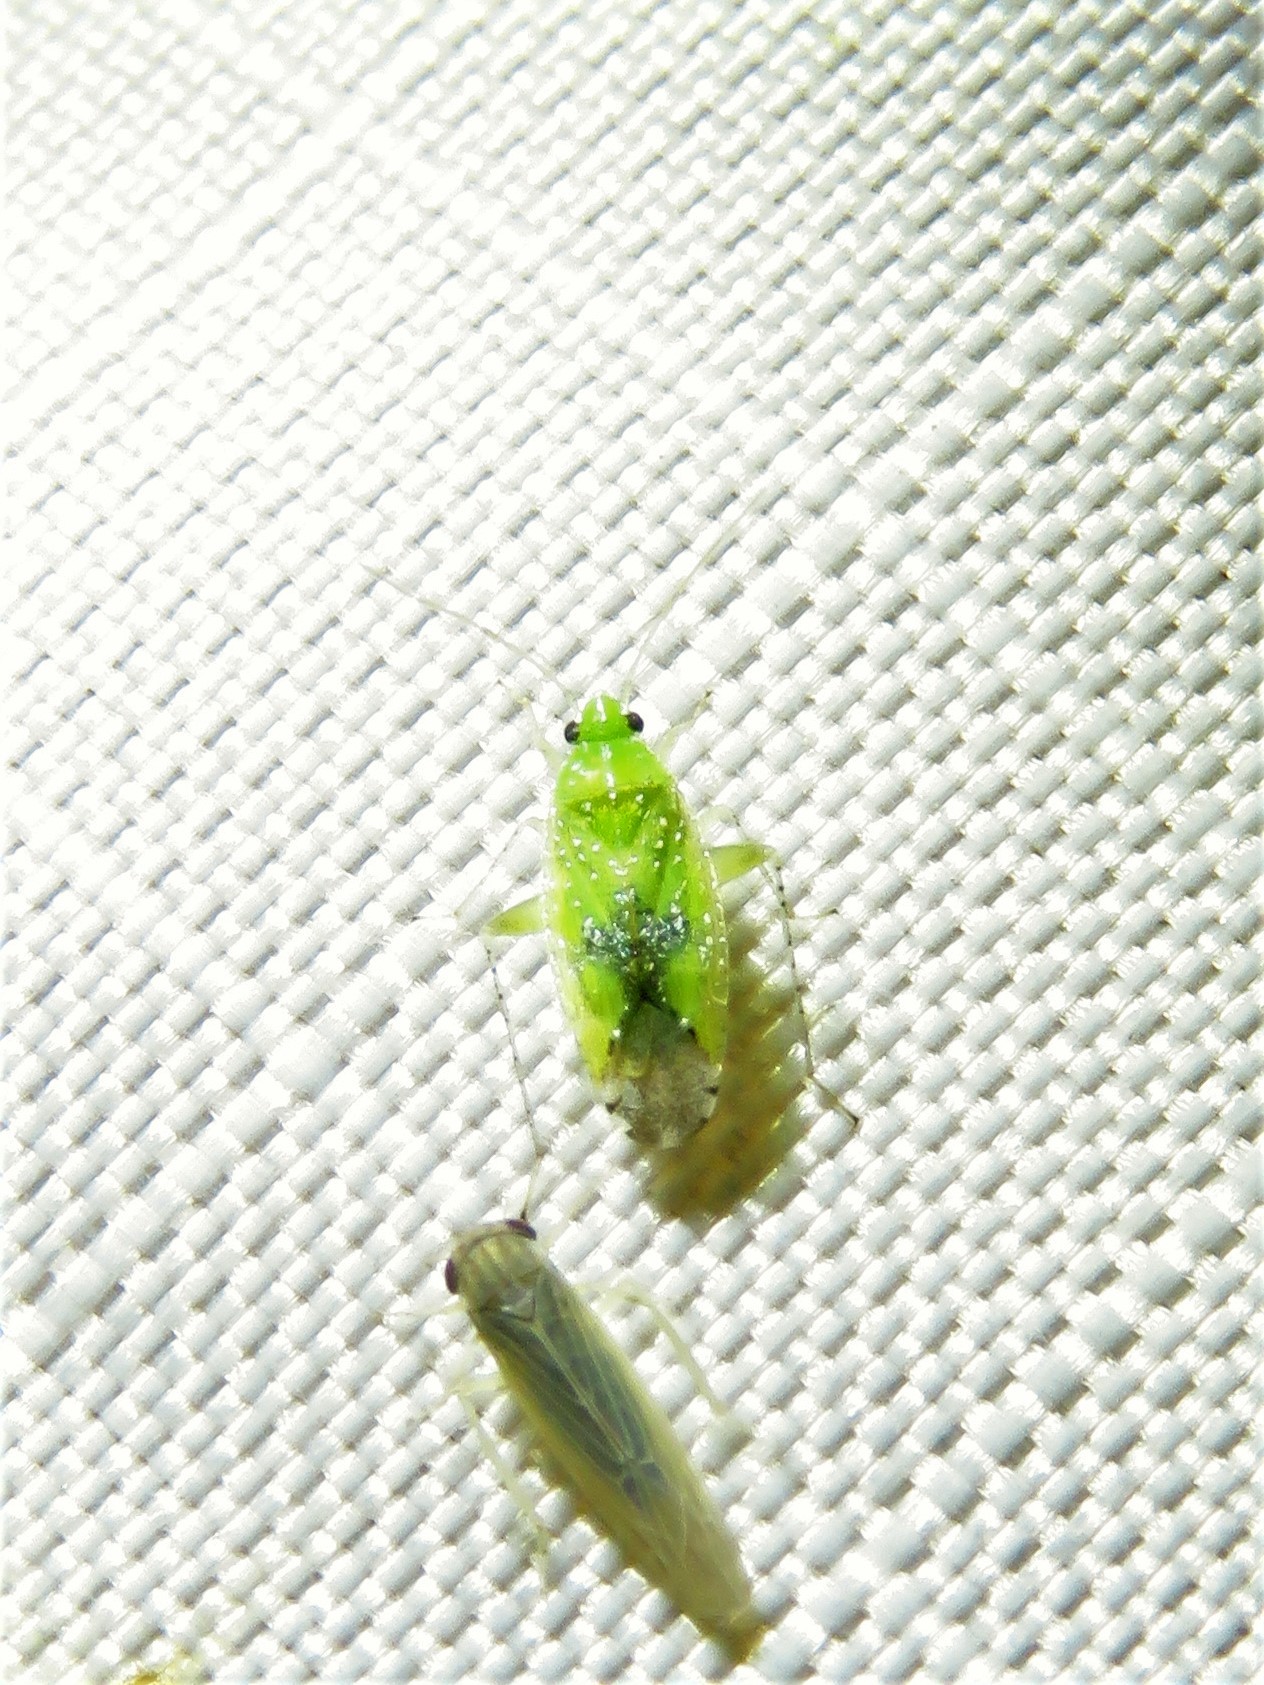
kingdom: Animalia
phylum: Arthropoda
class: Insecta
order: Hemiptera
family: Miridae
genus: Keltonia
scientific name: Keltonia tuckeri
